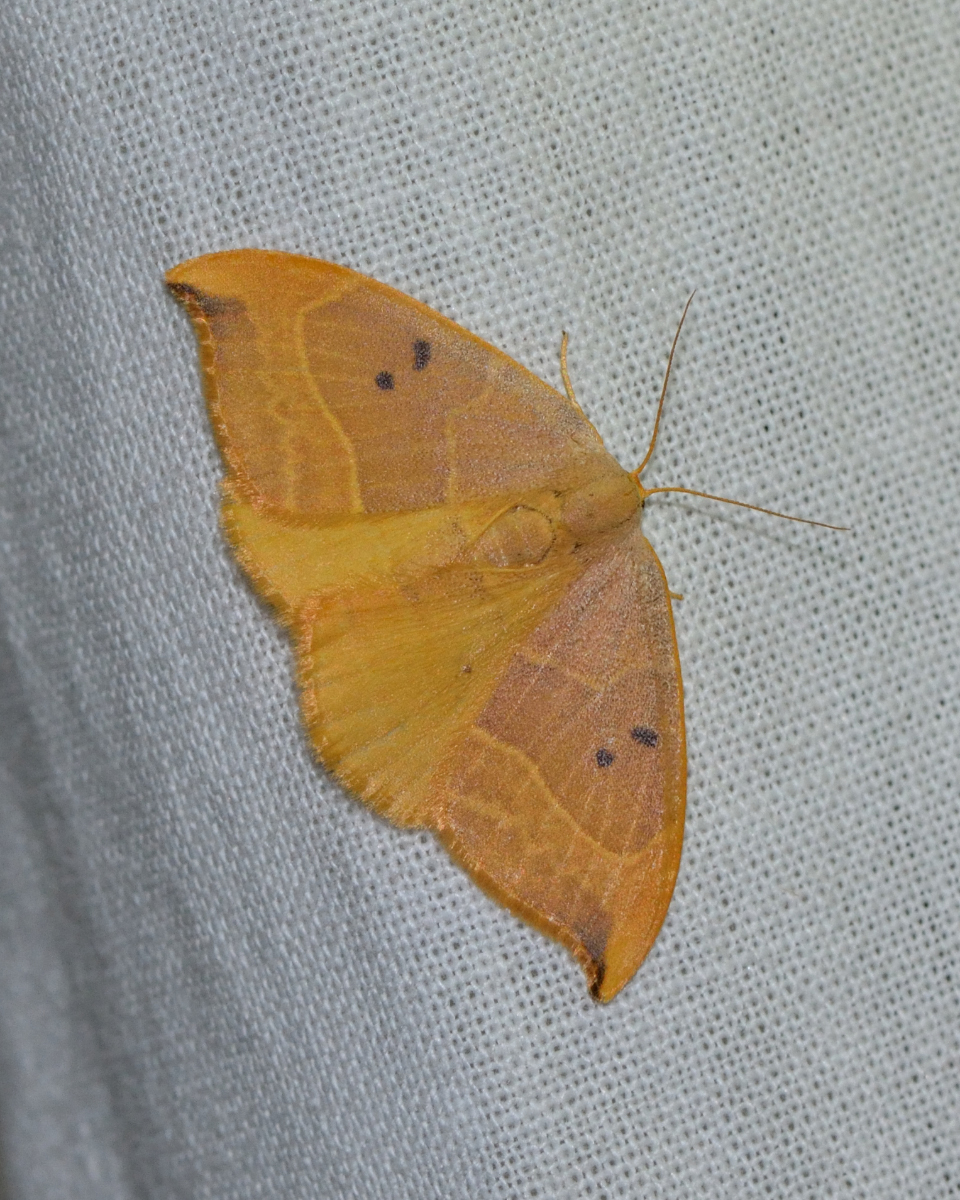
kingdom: Animalia
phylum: Arthropoda
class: Insecta
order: Lepidoptera
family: Drepanidae
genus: Watsonalla
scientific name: Watsonalla binaria
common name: Oak hook-tip
